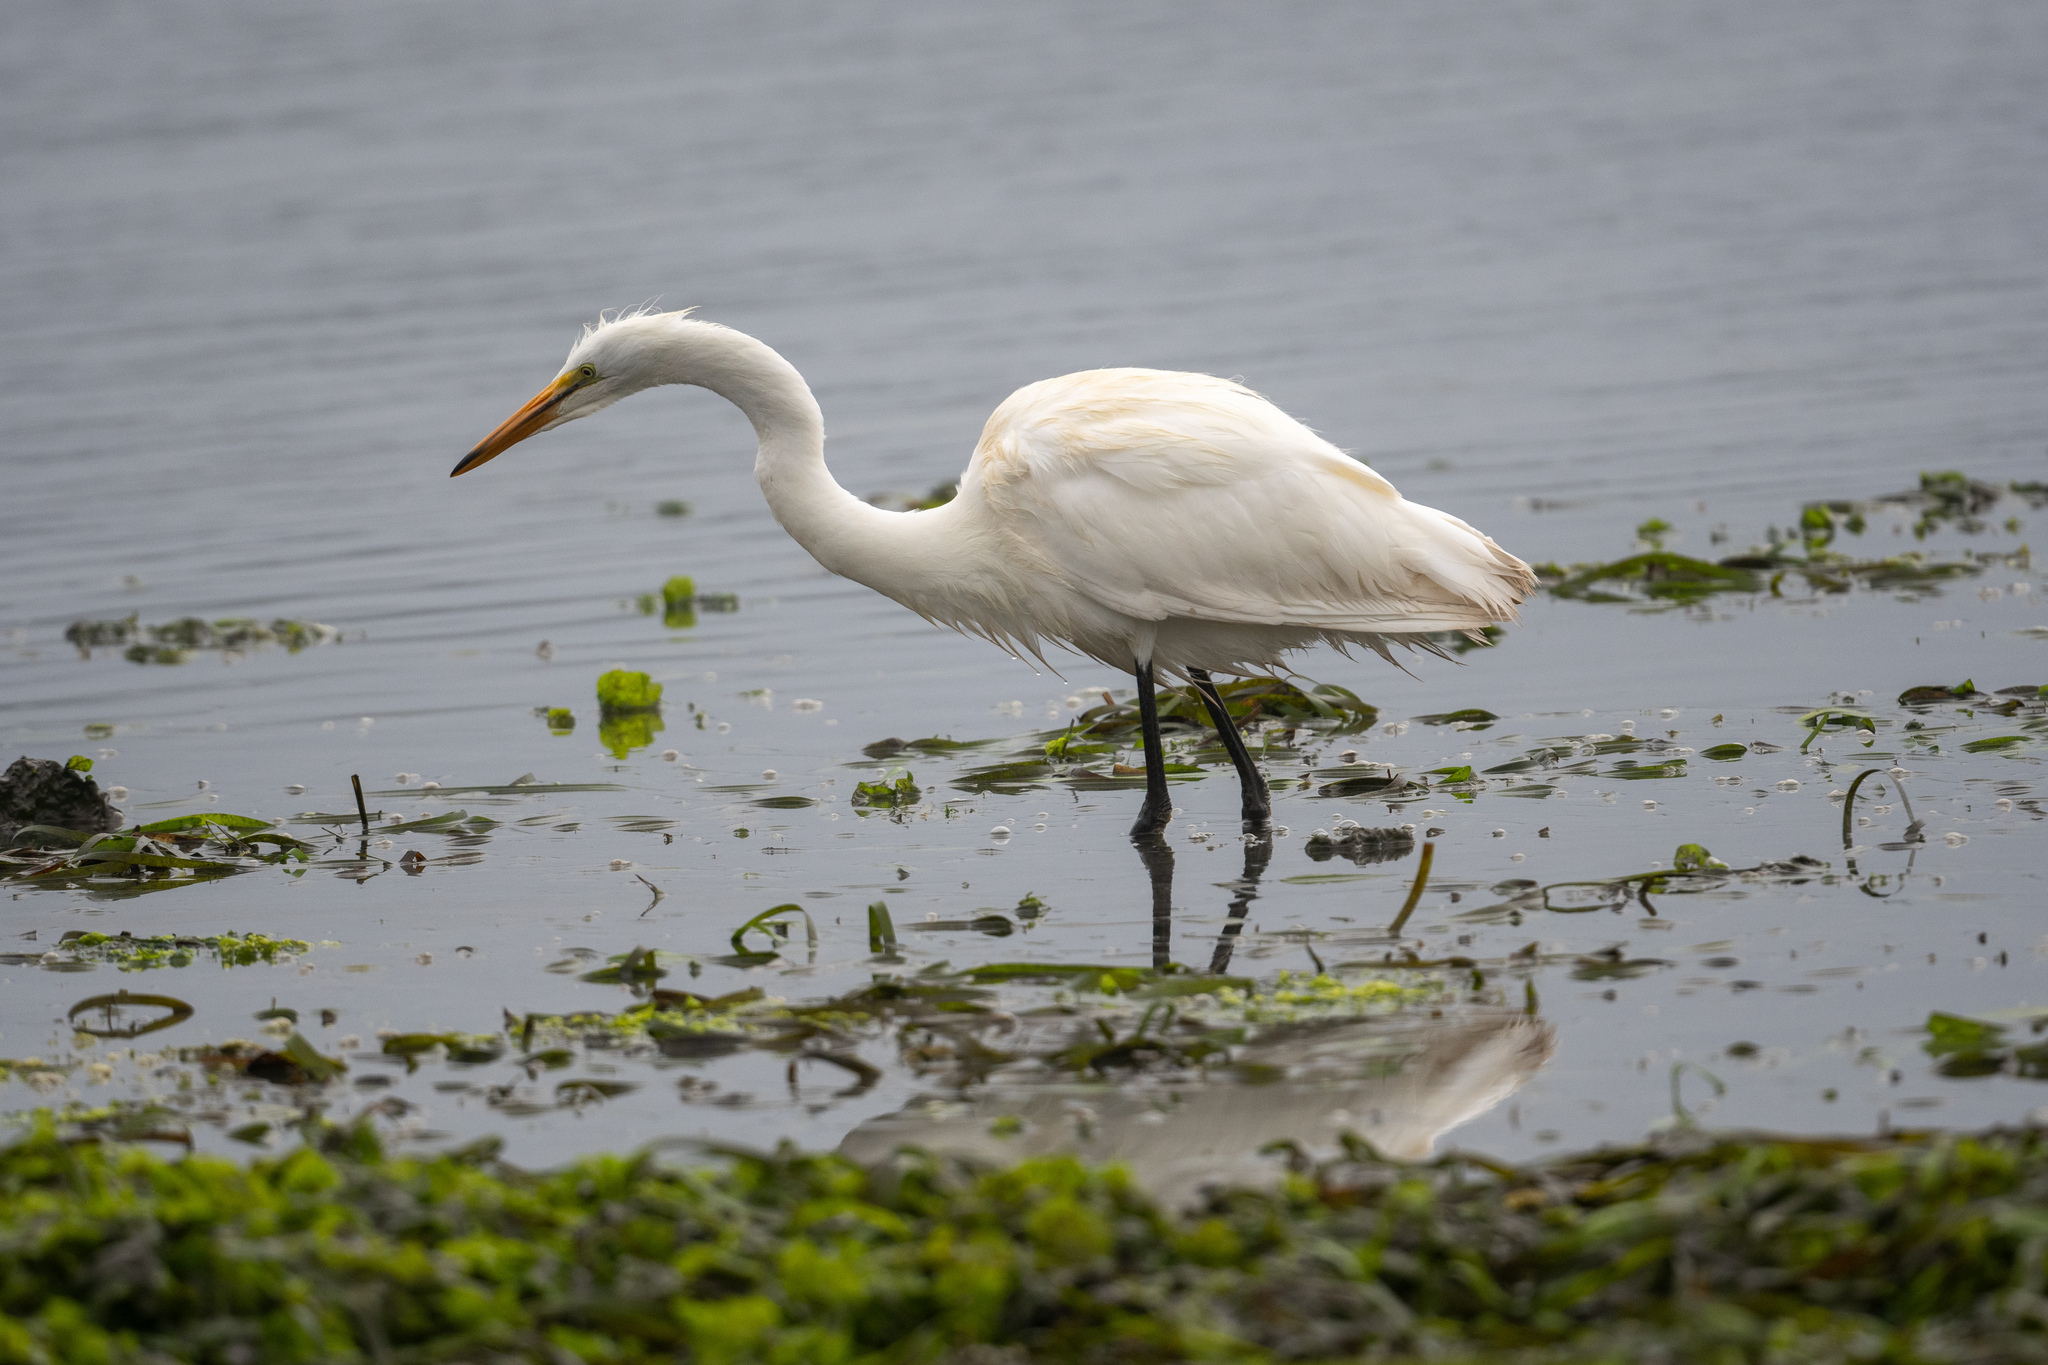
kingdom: Animalia
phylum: Chordata
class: Aves
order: Pelecaniformes
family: Ardeidae
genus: Ardea
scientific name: Ardea alba
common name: Great egret
